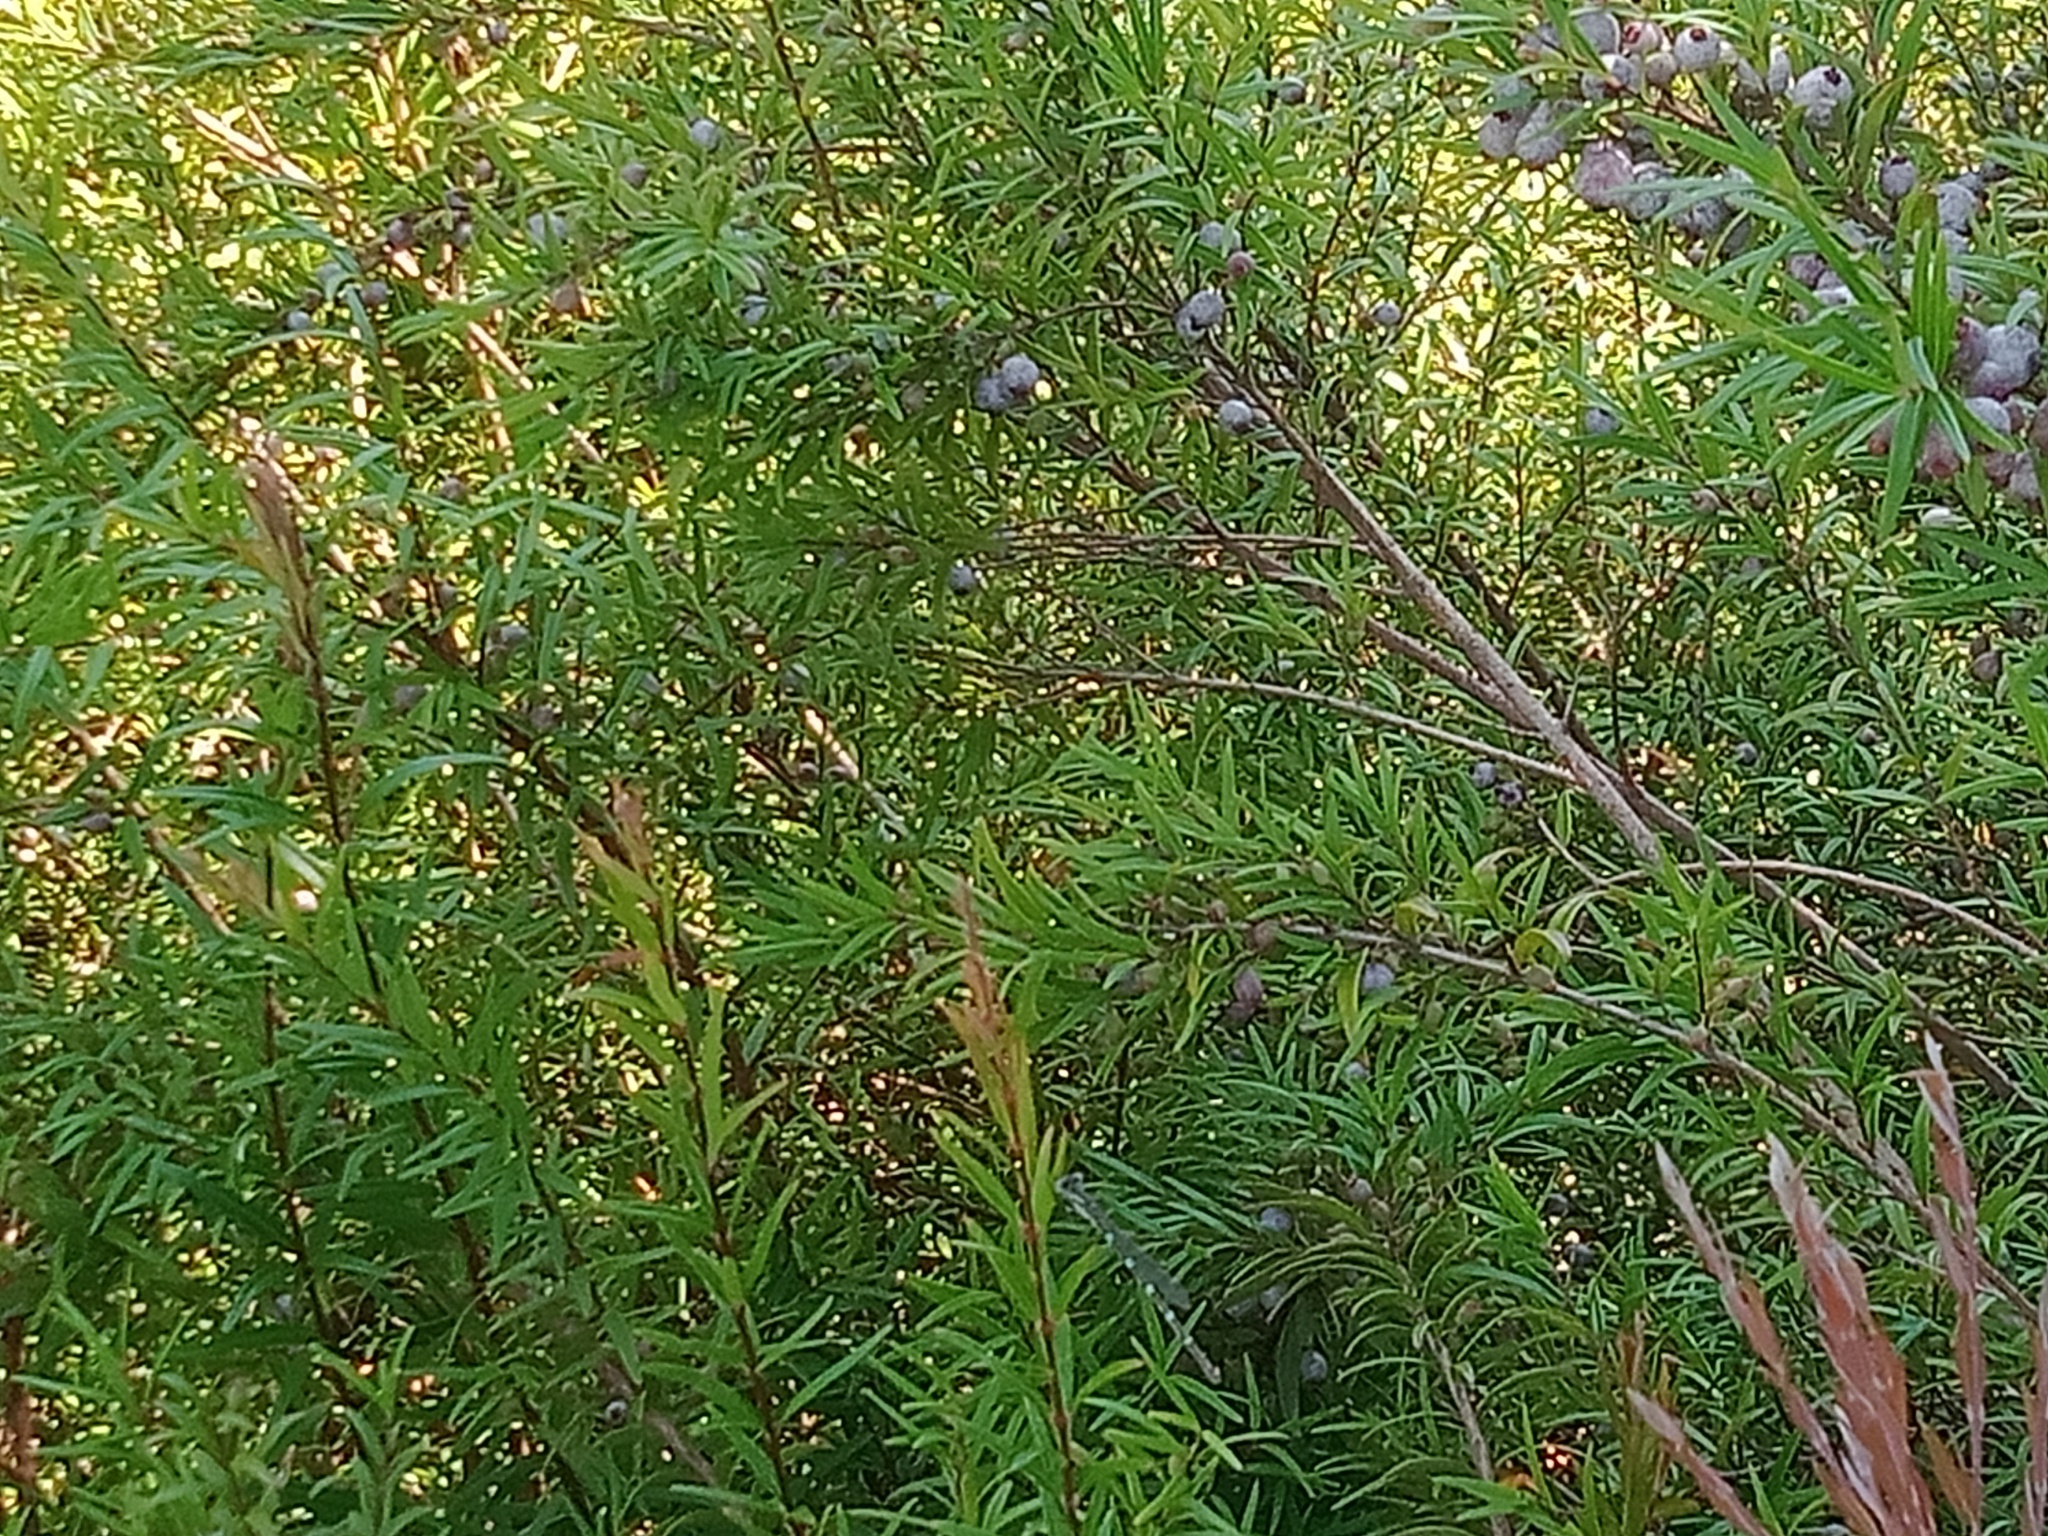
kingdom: Animalia
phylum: Arthropoda
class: Insecta
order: Odonata
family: Lestidae
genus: Austrolestes
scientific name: Austrolestes leda
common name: Wandering ringtail
